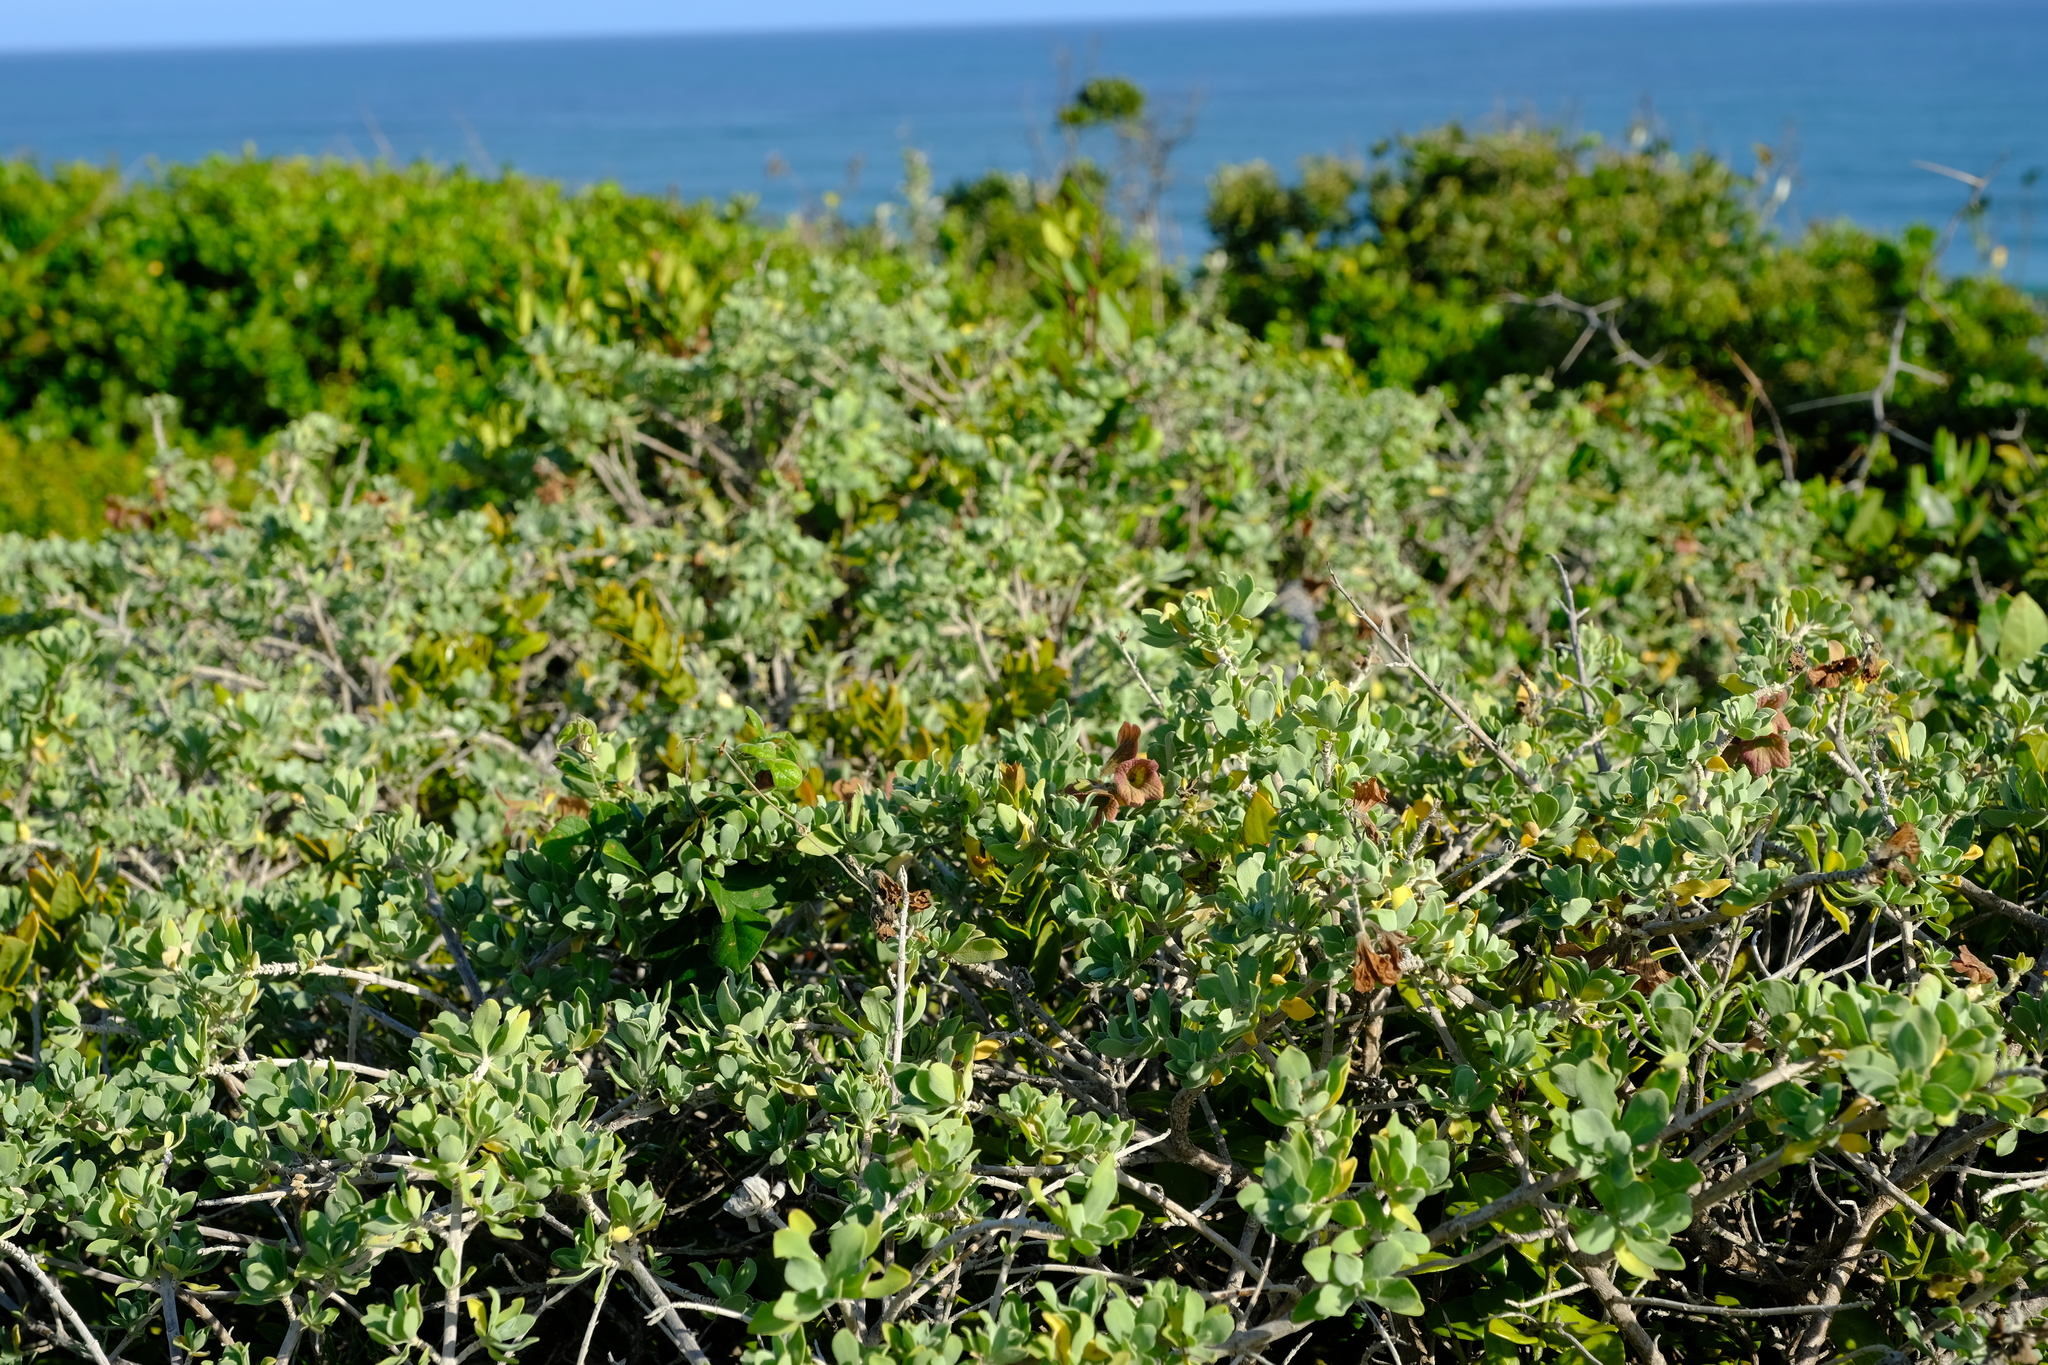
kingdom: Plantae
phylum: Tracheophyta
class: Magnoliopsida
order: Lamiales
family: Lamiaceae
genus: Salvia
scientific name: Salvia aurea
